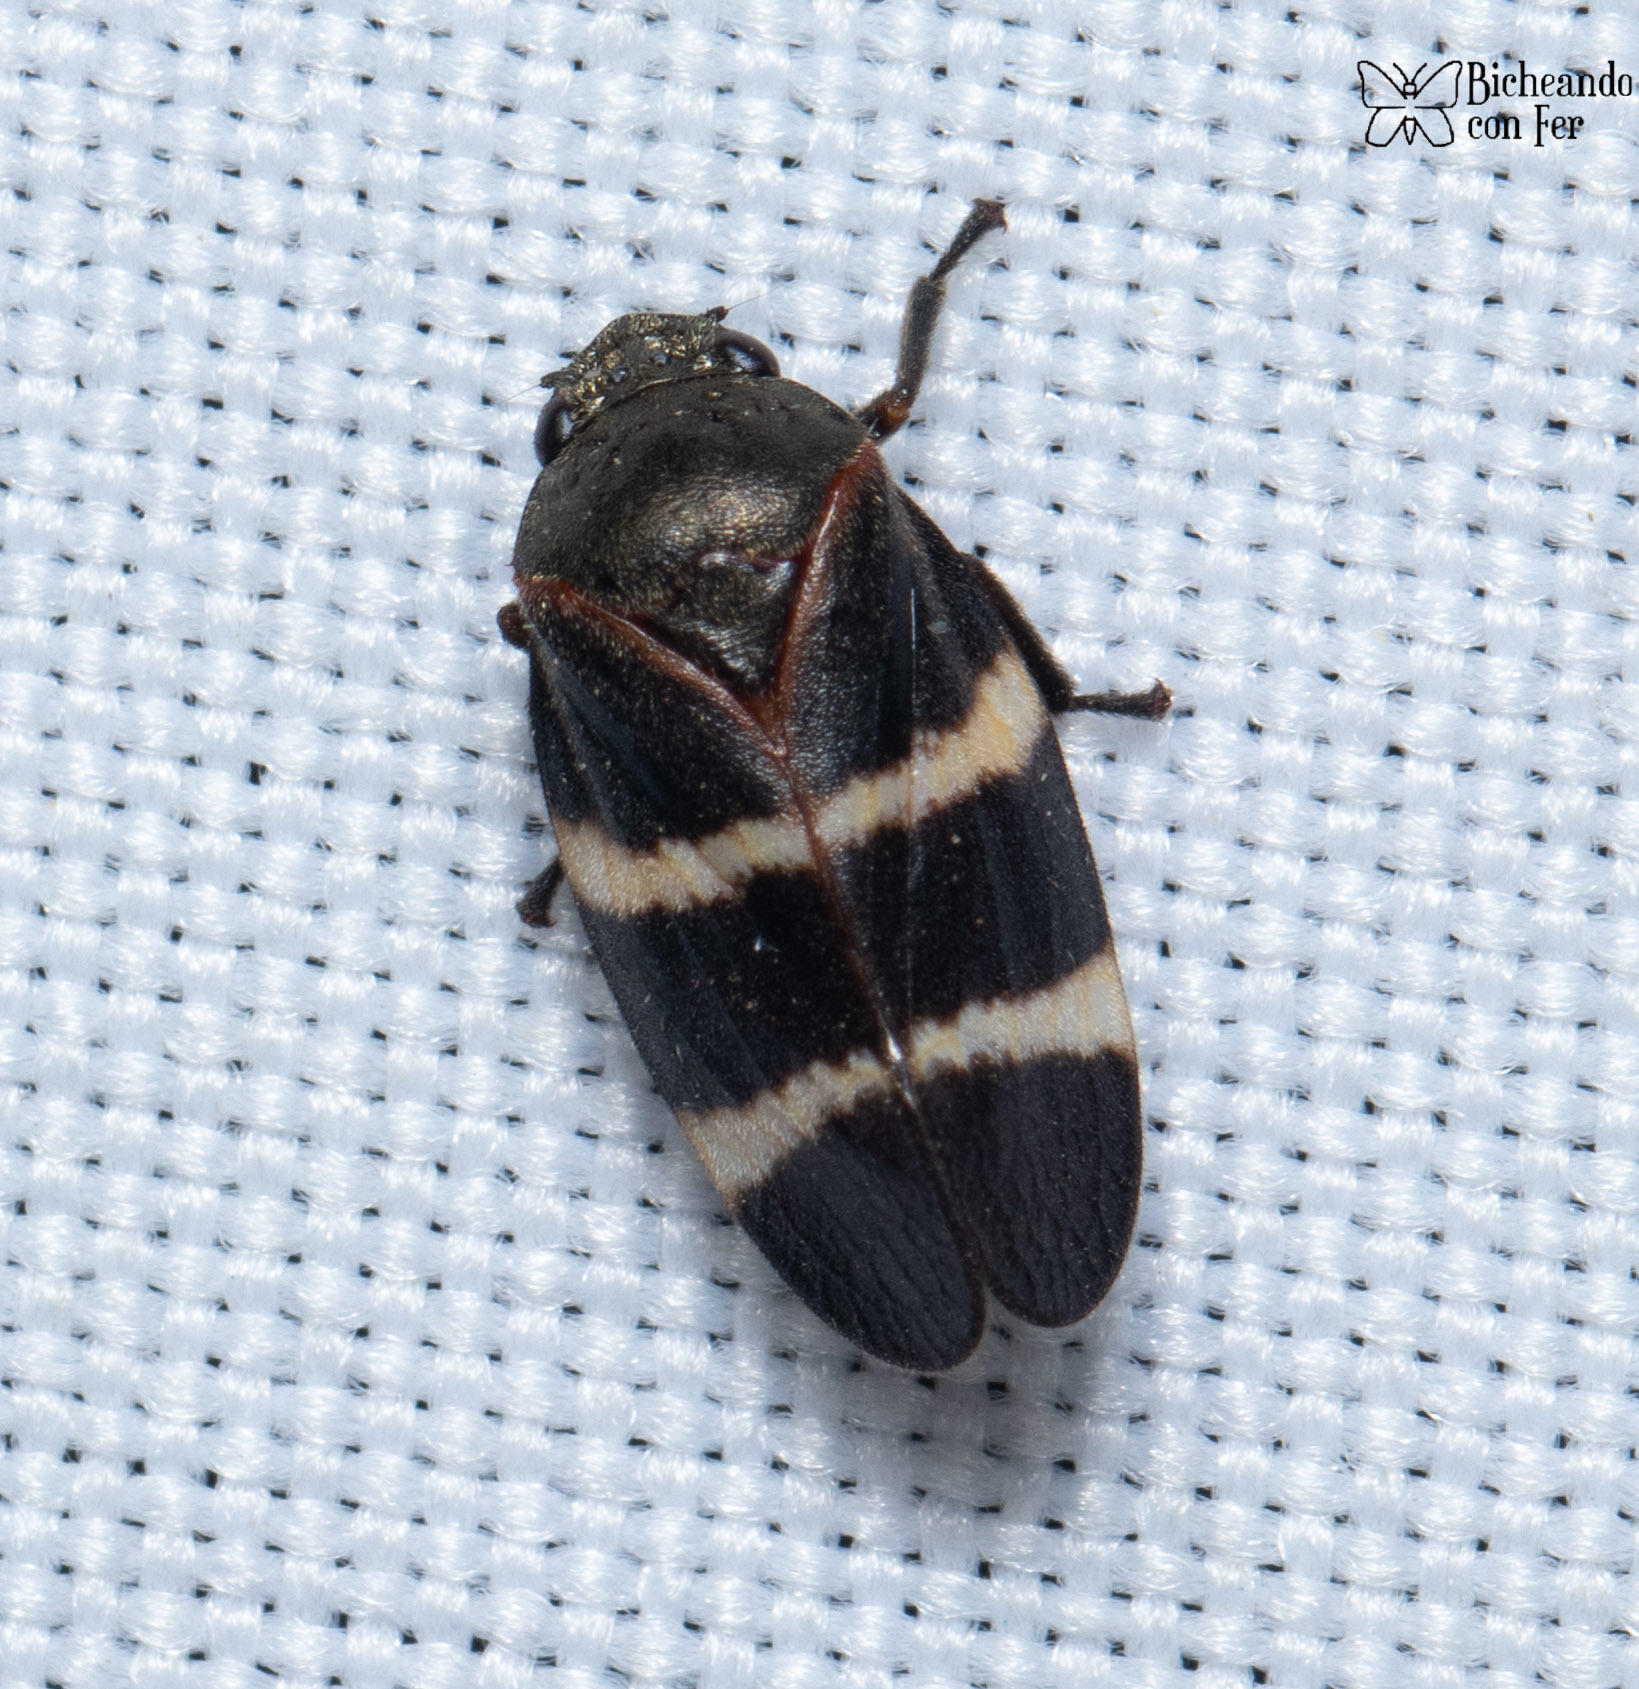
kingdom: Animalia
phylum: Arthropoda
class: Insecta
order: Hemiptera
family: Cercopidae
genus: Aeneolamia
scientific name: Aeneolamia contigua
